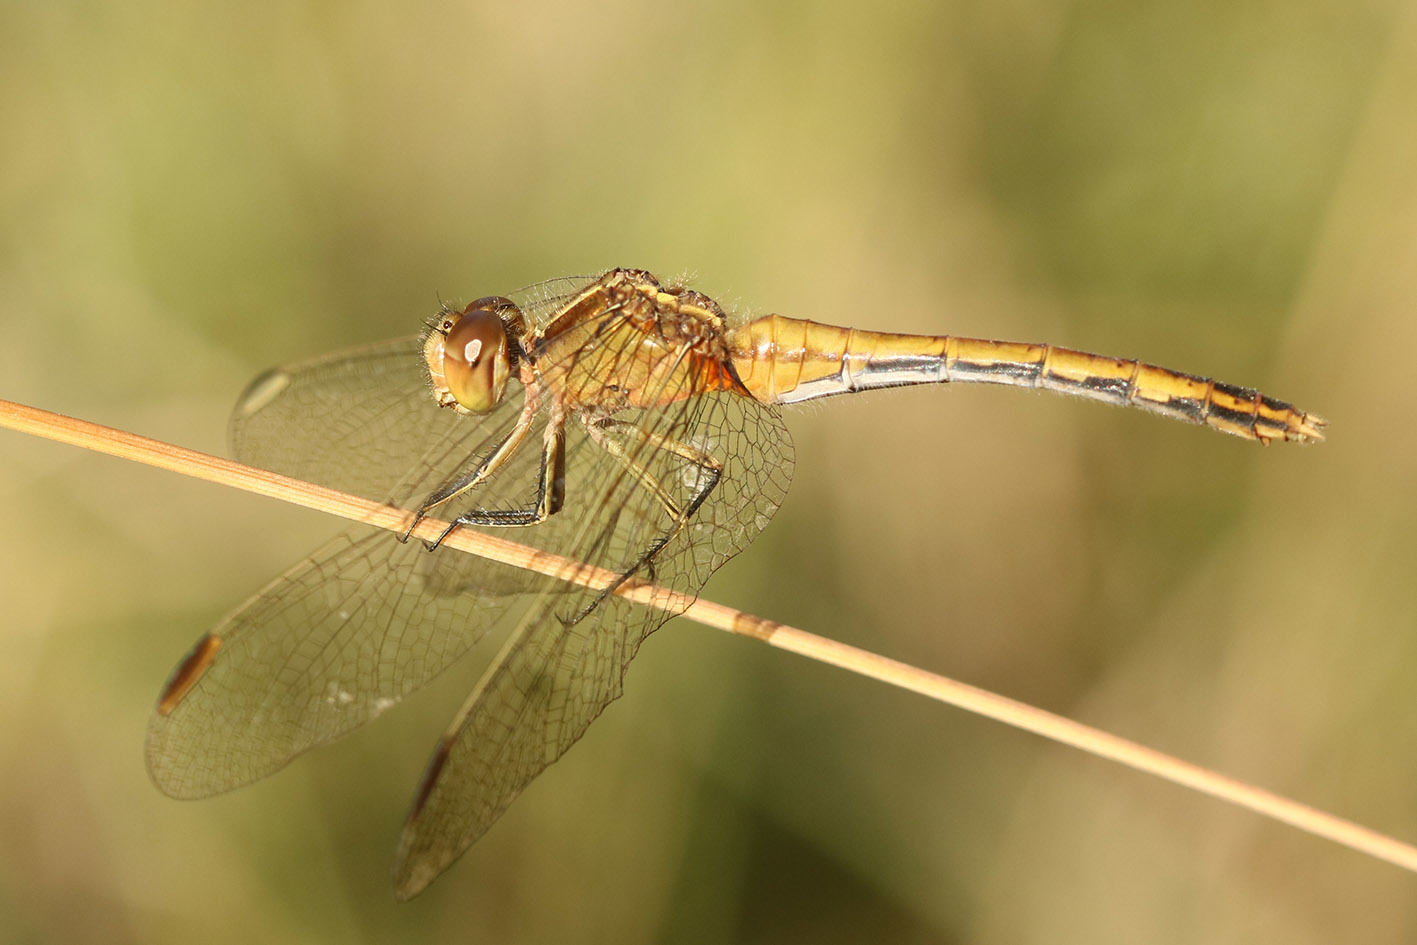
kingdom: Animalia
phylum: Arthropoda
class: Insecta
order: Odonata
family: Libellulidae
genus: Erythrodiplax
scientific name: Erythrodiplax nigricans
